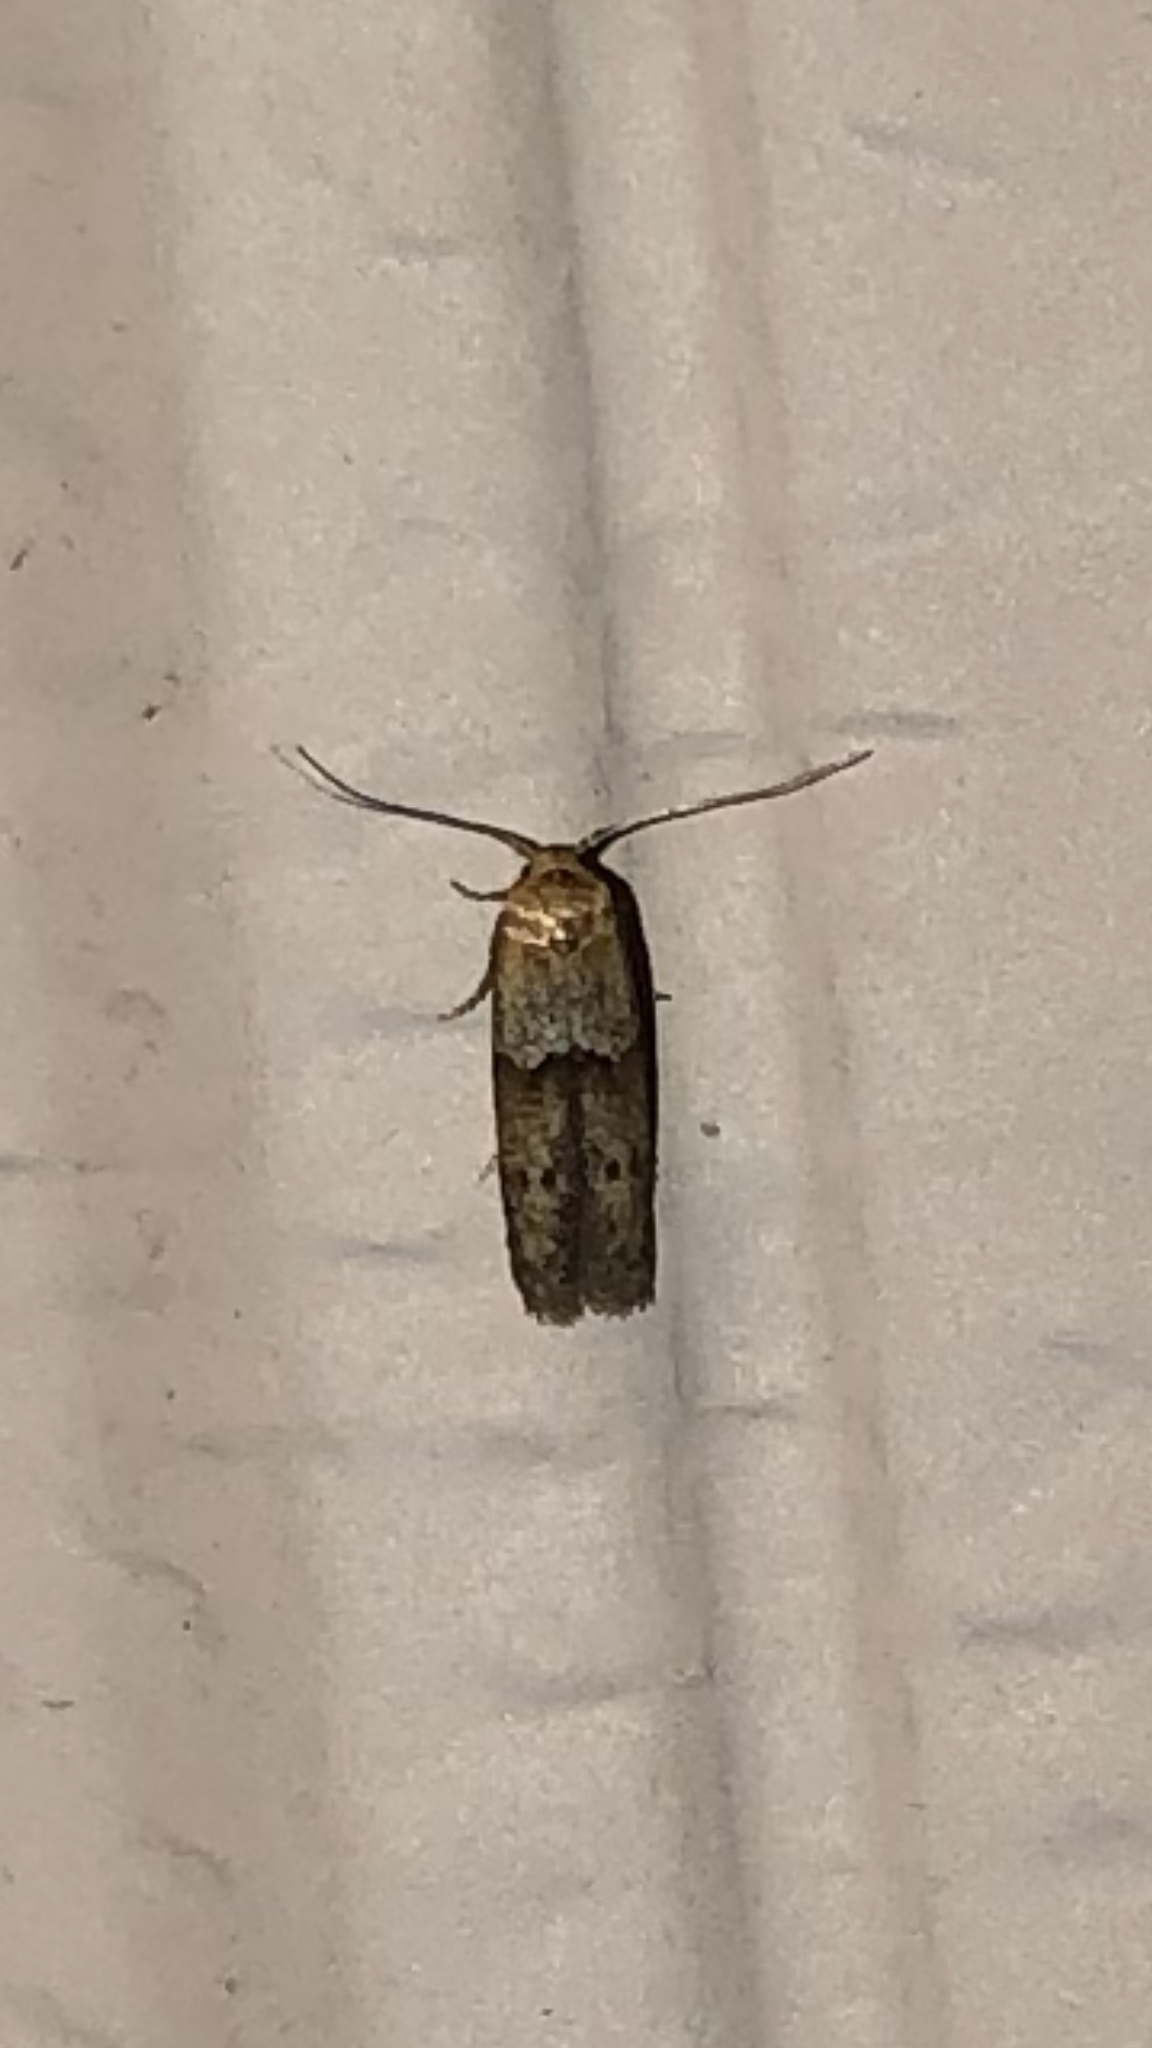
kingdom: Animalia
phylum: Arthropoda
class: Insecta
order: Lepidoptera
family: Blastobasidae
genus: Blastobasis
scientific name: Blastobasis glandulella
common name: Acorn moth
